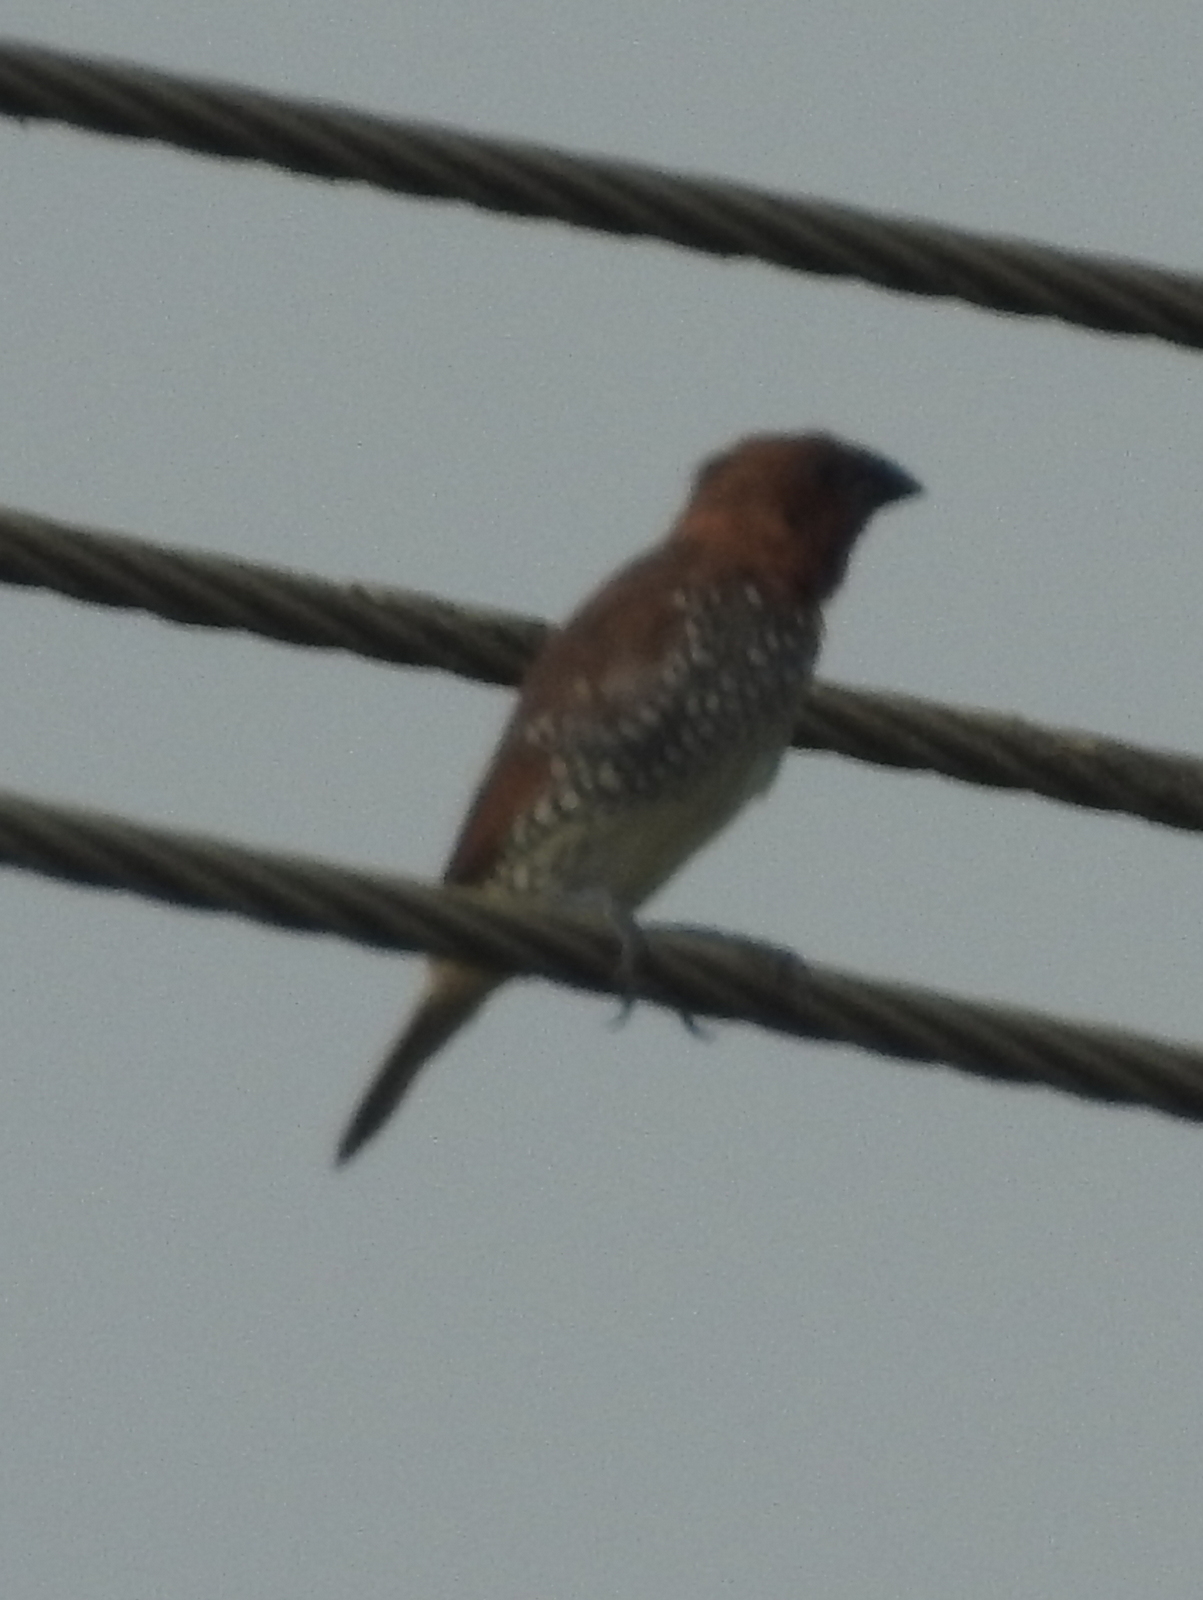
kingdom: Animalia
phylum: Chordata
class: Aves
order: Passeriformes
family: Estrildidae
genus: Lonchura
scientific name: Lonchura punctulata
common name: Scaly-breasted munia
